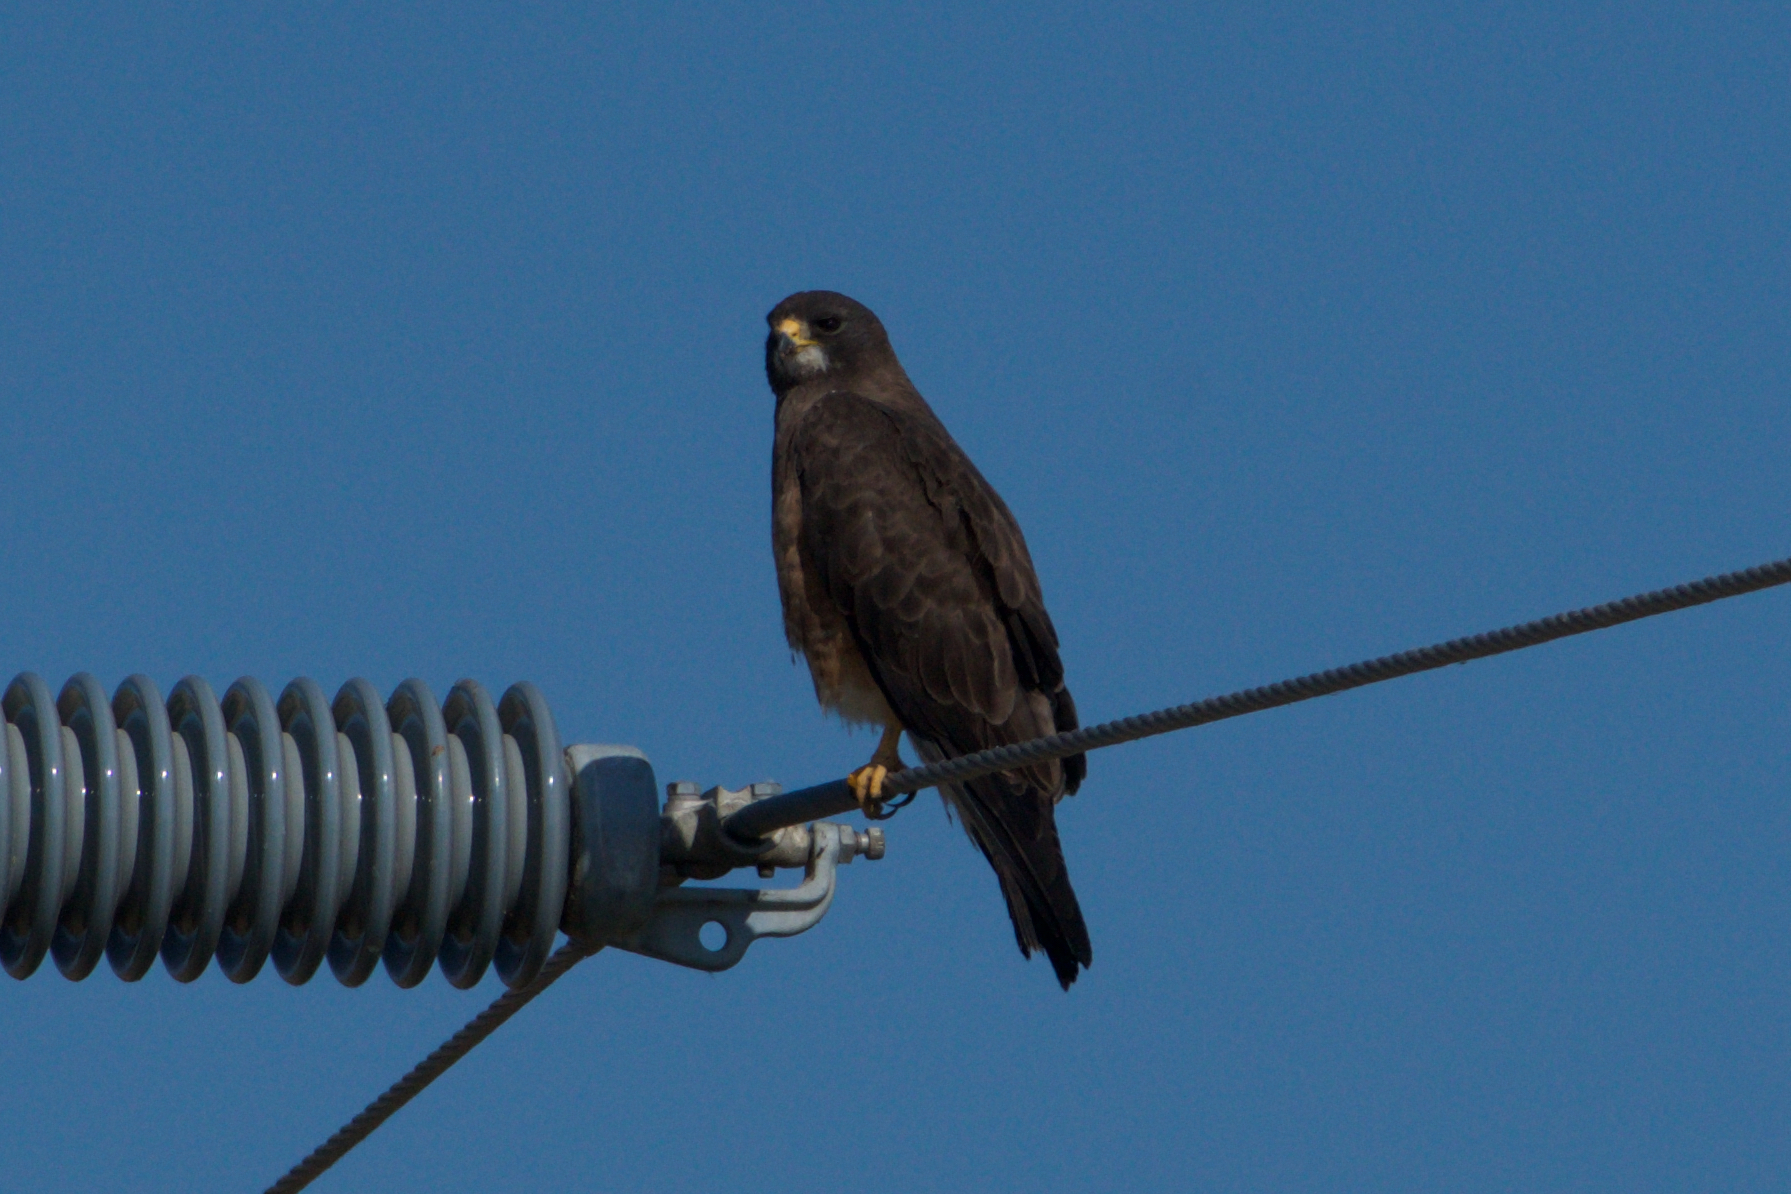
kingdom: Animalia
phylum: Chordata
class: Aves
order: Accipitriformes
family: Accipitridae
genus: Buteo
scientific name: Buteo swainsoni
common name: Swainson's hawk
